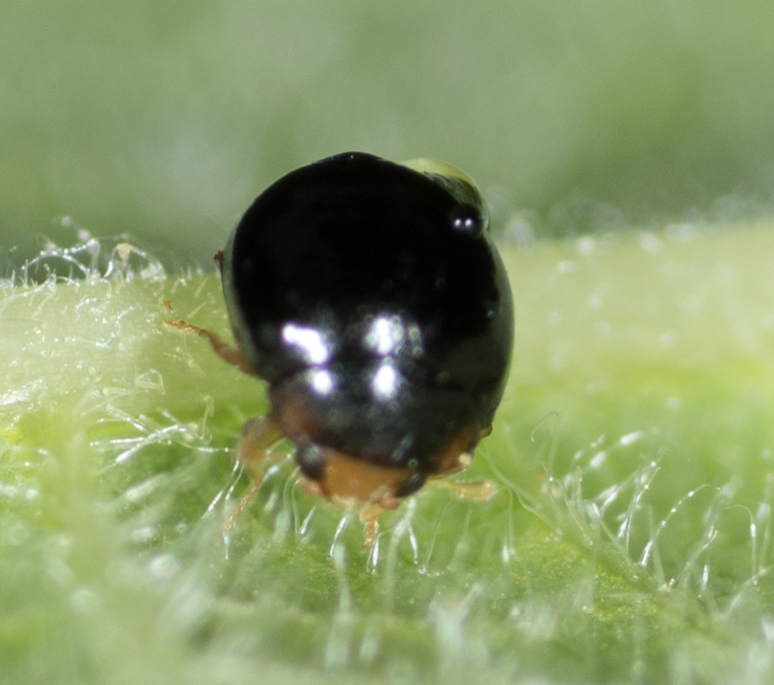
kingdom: Animalia
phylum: Arthropoda
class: Insecta
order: Coleoptera
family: Coccinellidae
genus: Delphastus
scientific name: Delphastus pusillus
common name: Ladybird beetle
